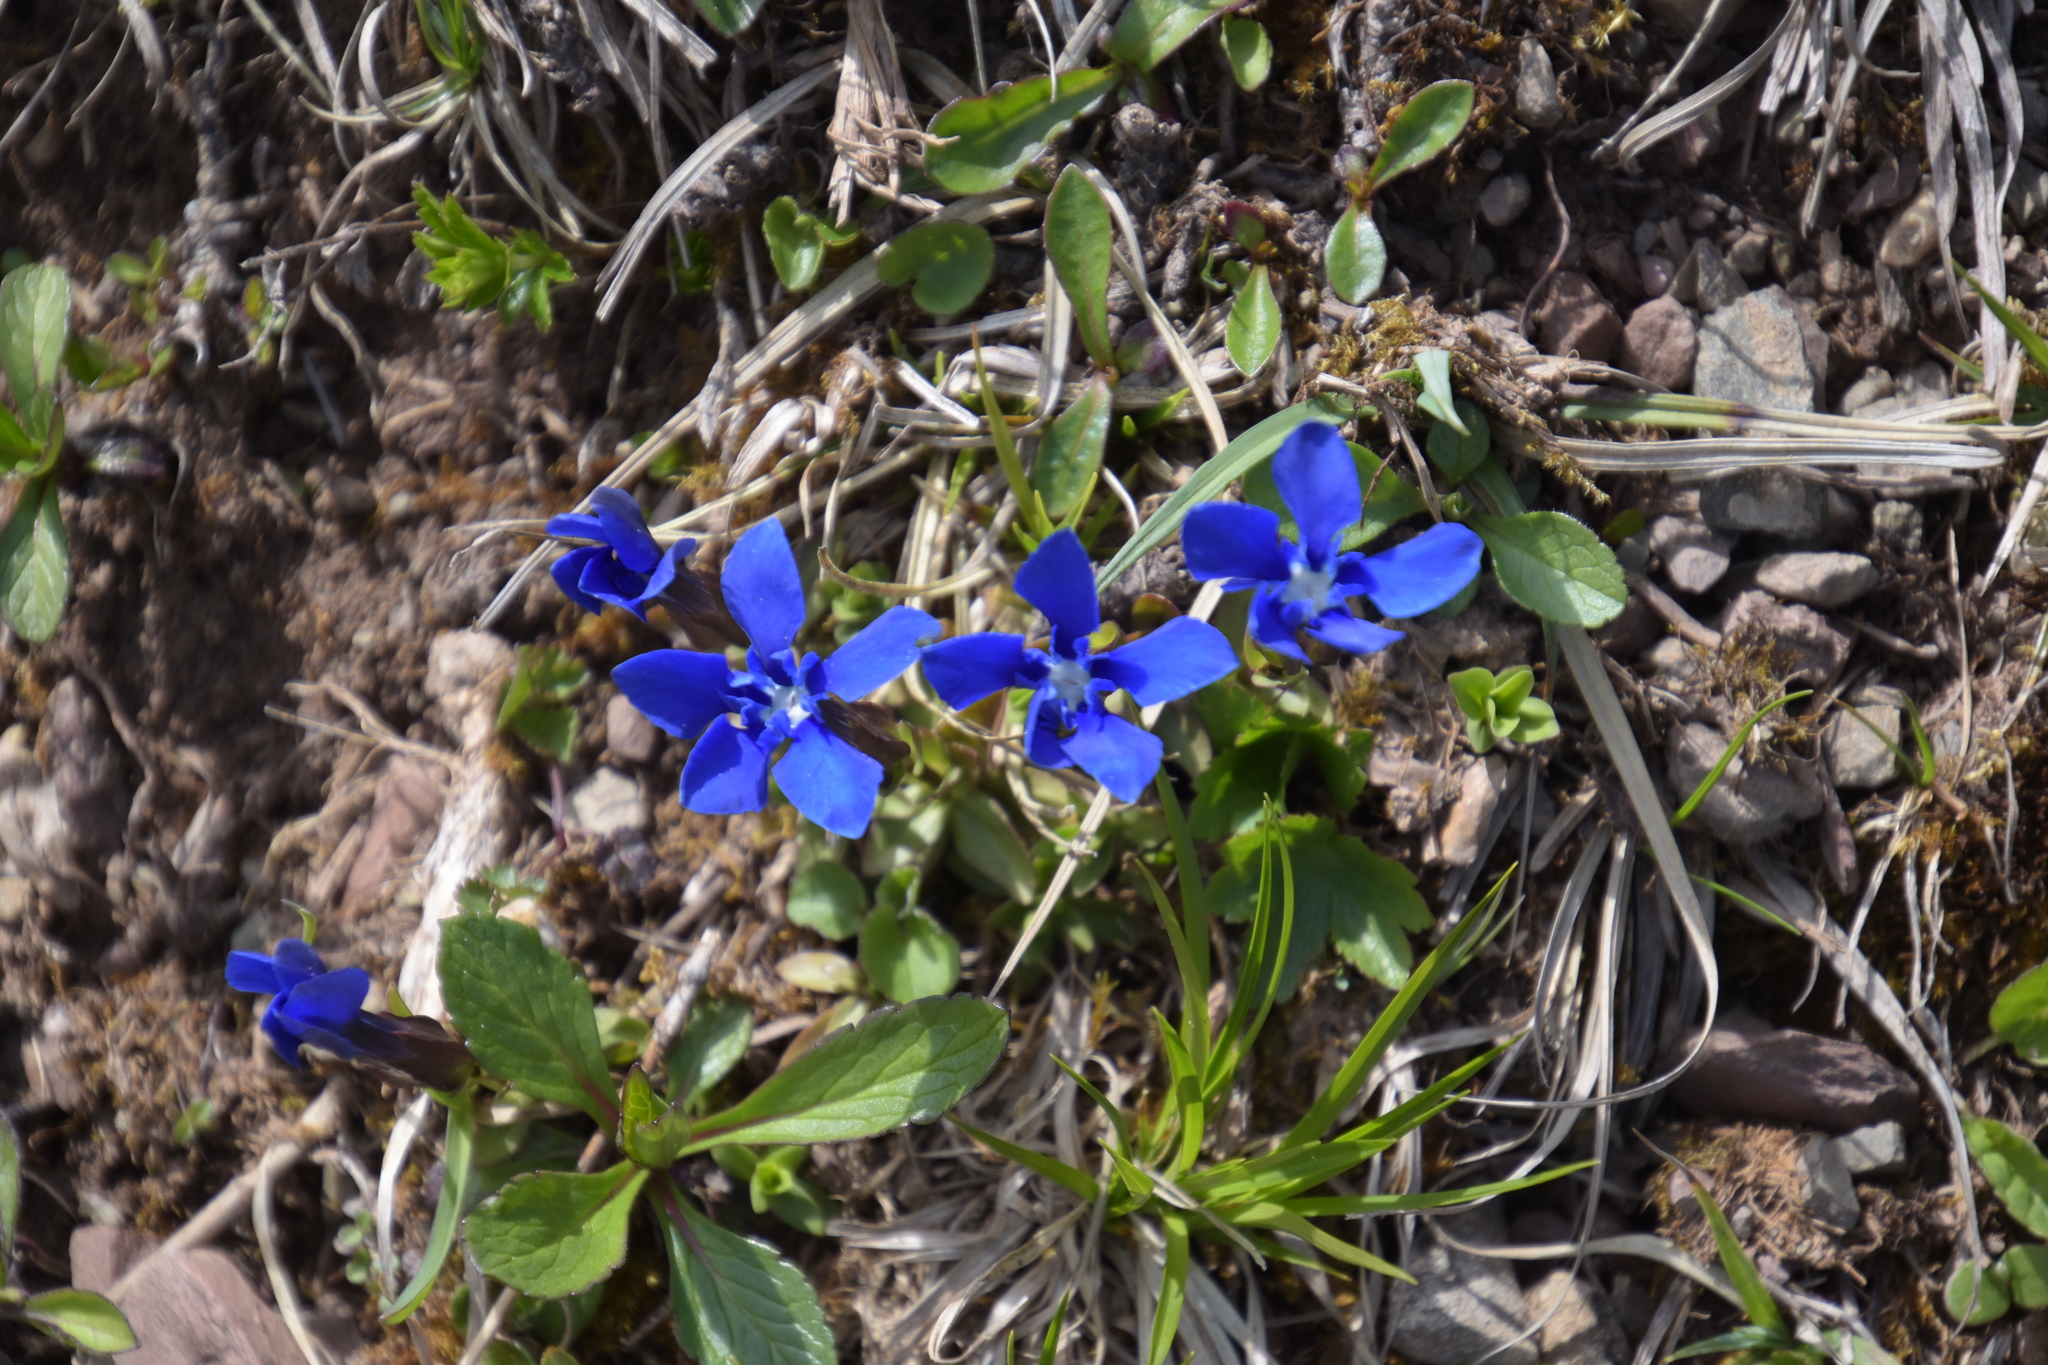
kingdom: Plantae
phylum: Tracheophyta
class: Magnoliopsida
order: Gentianales
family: Gentianaceae
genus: Gentiana
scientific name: Gentiana verna
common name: Spring gentian
